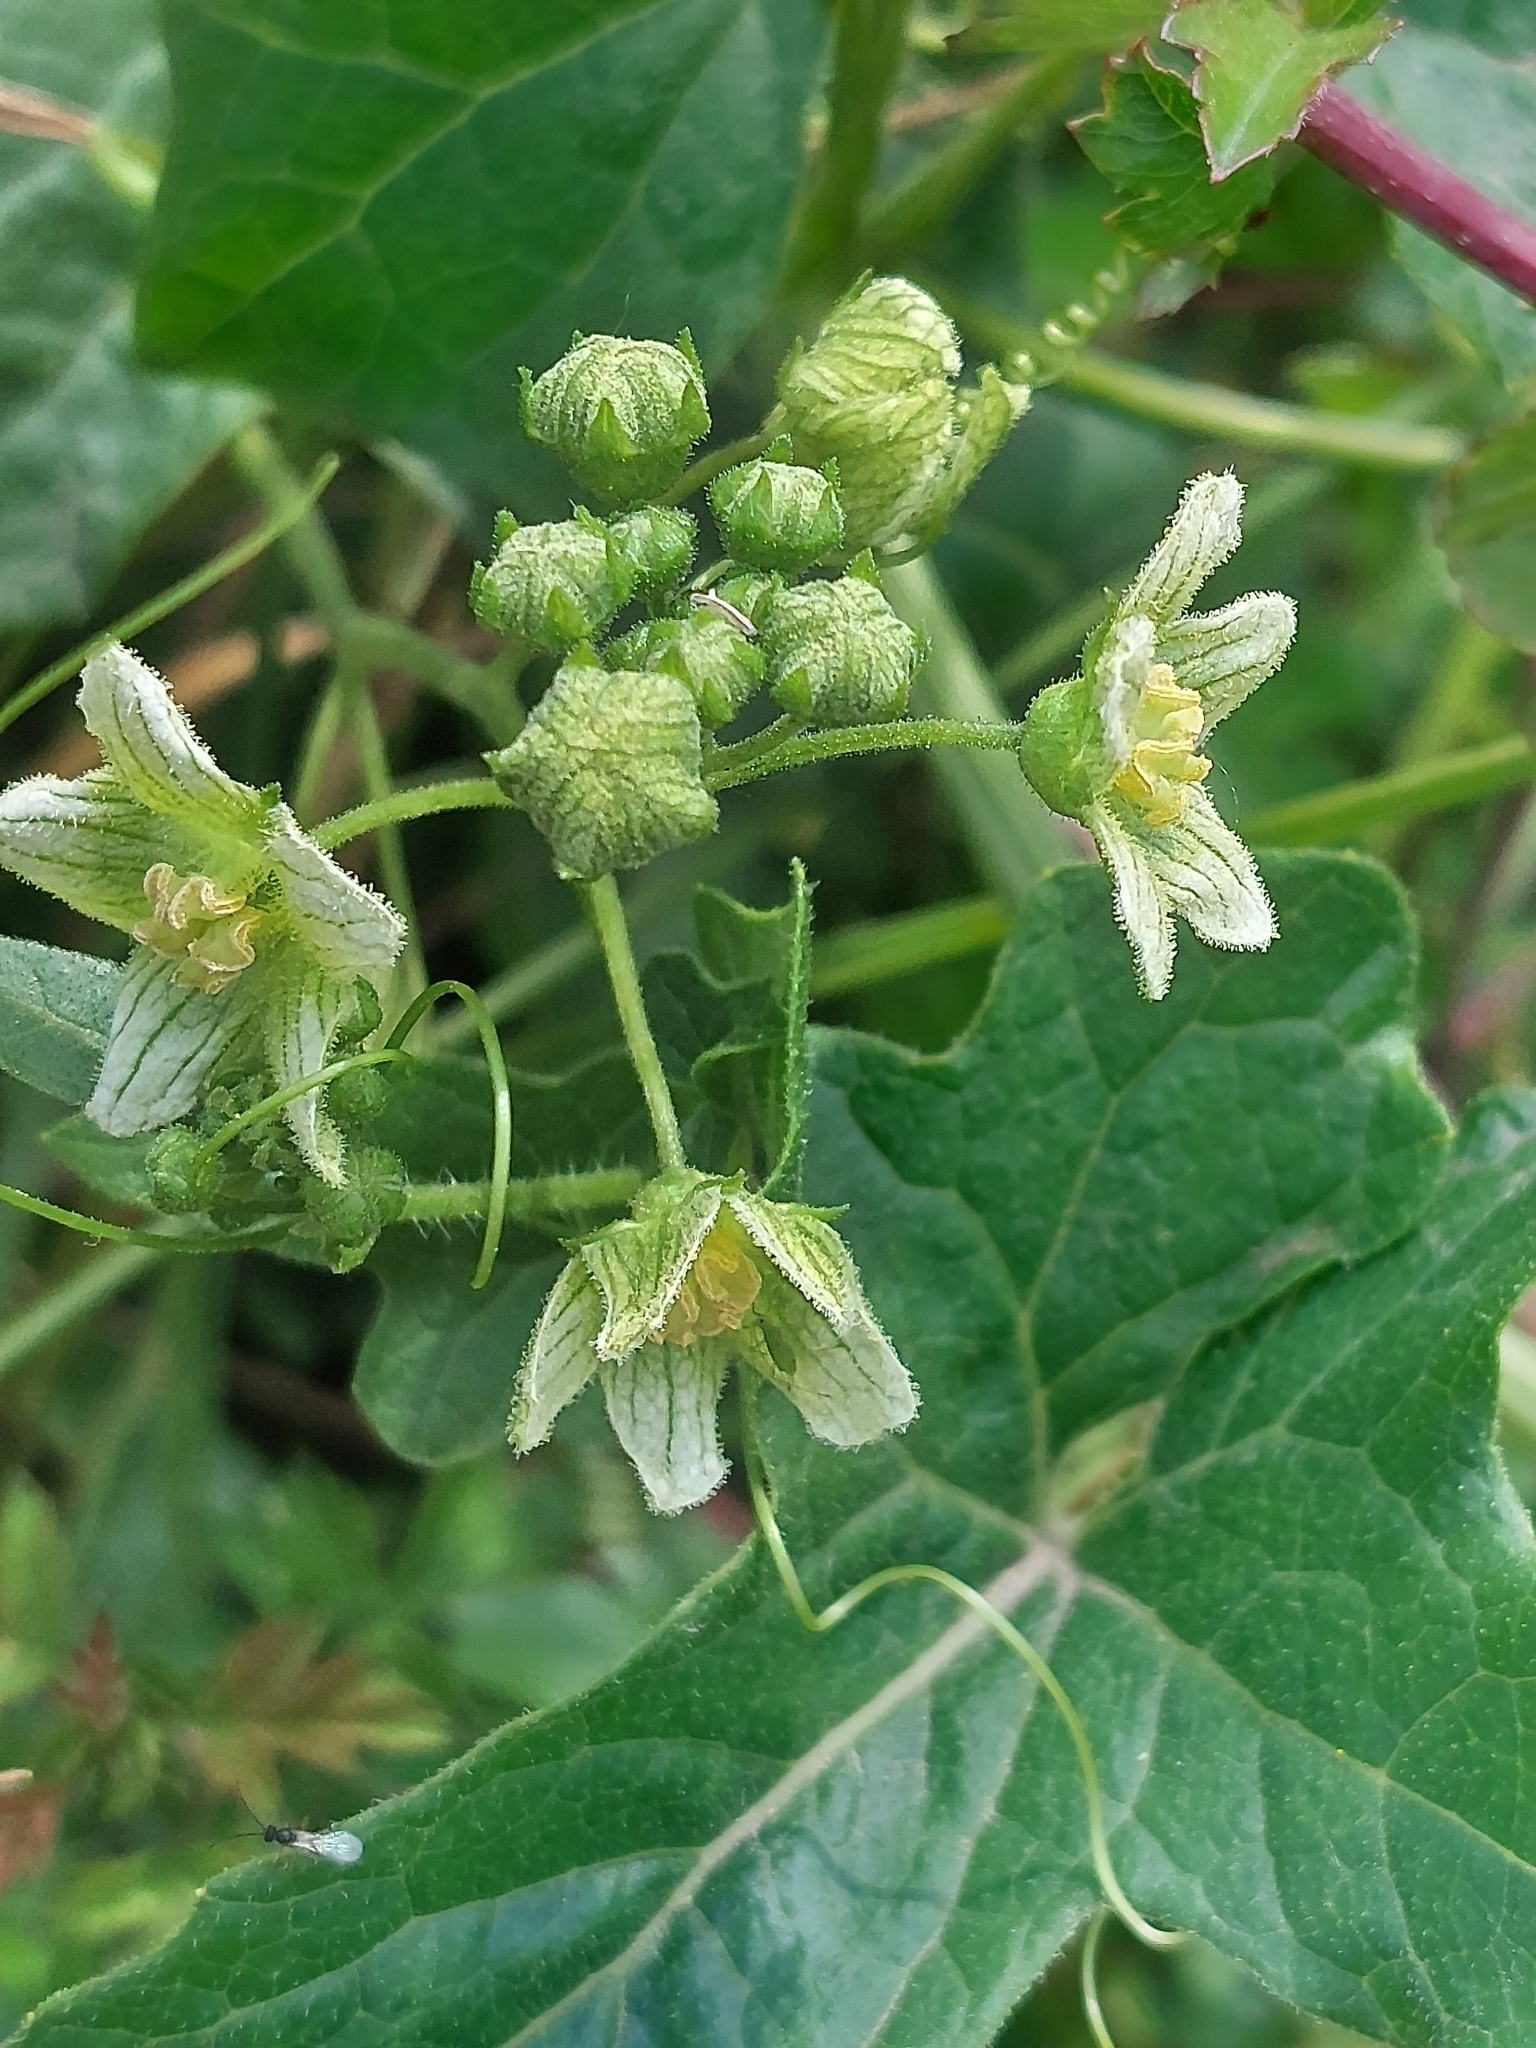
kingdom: Plantae
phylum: Tracheophyta
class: Magnoliopsida
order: Cucurbitales
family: Cucurbitaceae
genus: Bryonia
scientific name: Bryonia cretica
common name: Cretan bryony
